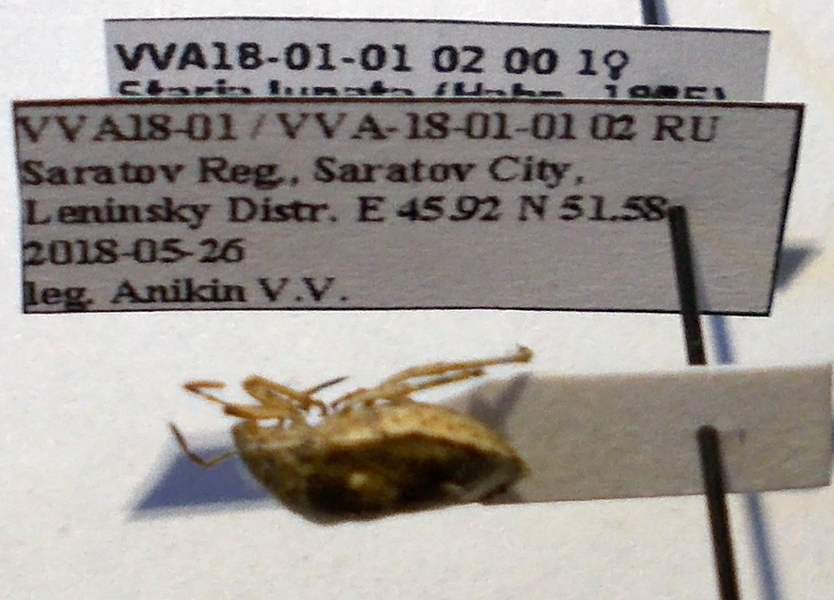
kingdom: Animalia
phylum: Arthropoda
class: Insecta
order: Hemiptera
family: Pentatomidae
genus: Staria
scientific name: Staria lunata
